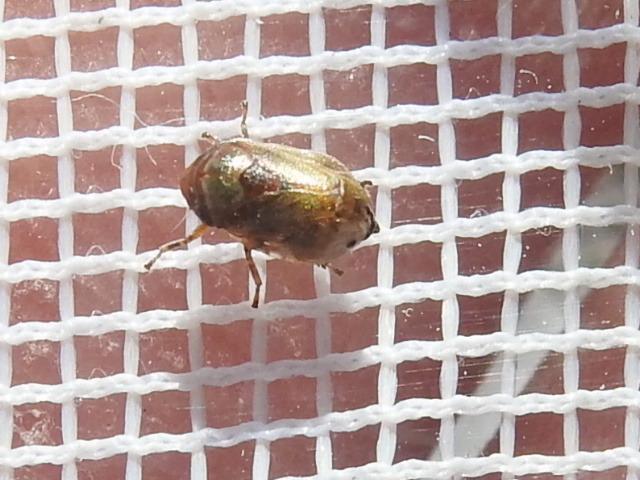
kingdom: Animalia
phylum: Arthropoda
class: Insecta
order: Hemiptera
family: Clastopteridae
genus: Clastoptera
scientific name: Clastoptera xanthocephala
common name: Sunflower spittlebug
